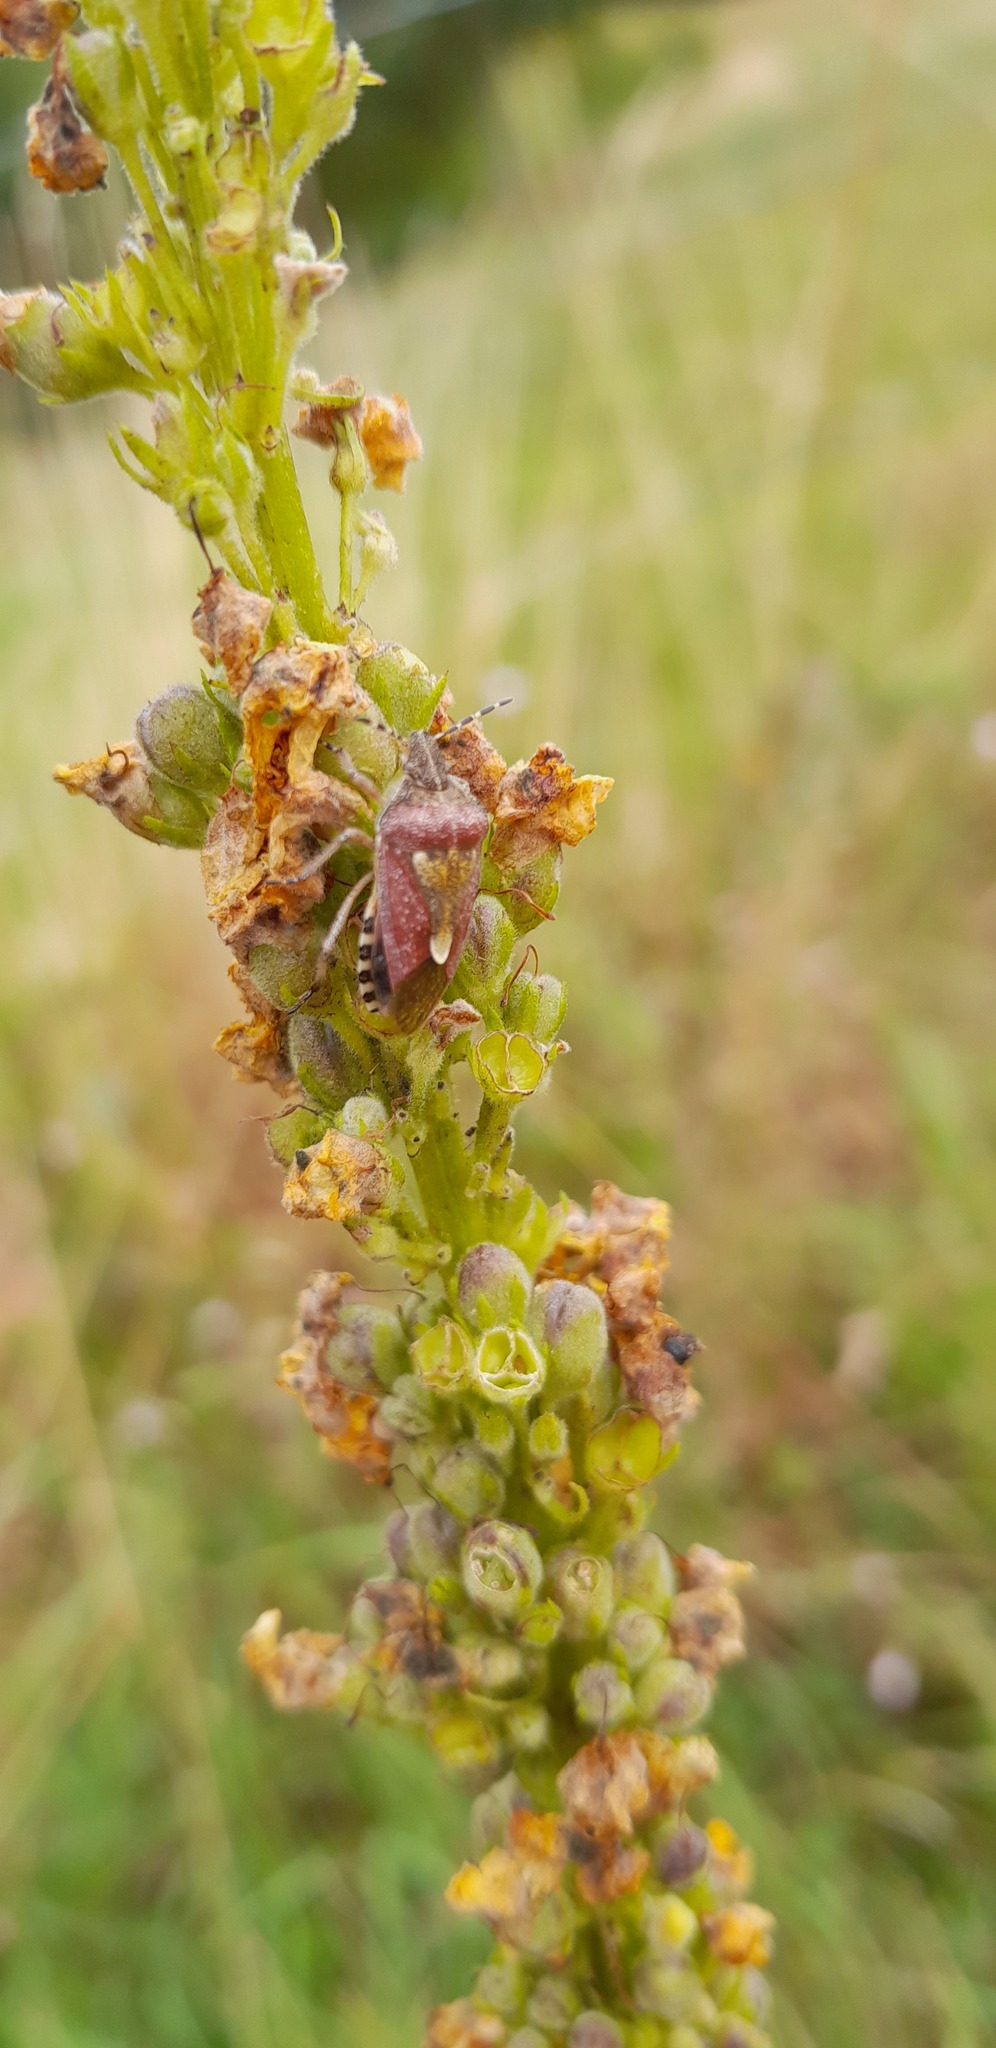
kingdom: Animalia
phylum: Arthropoda
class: Insecta
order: Hemiptera
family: Pentatomidae
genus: Dolycoris
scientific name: Dolycoris baccarum
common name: Sloe bug
